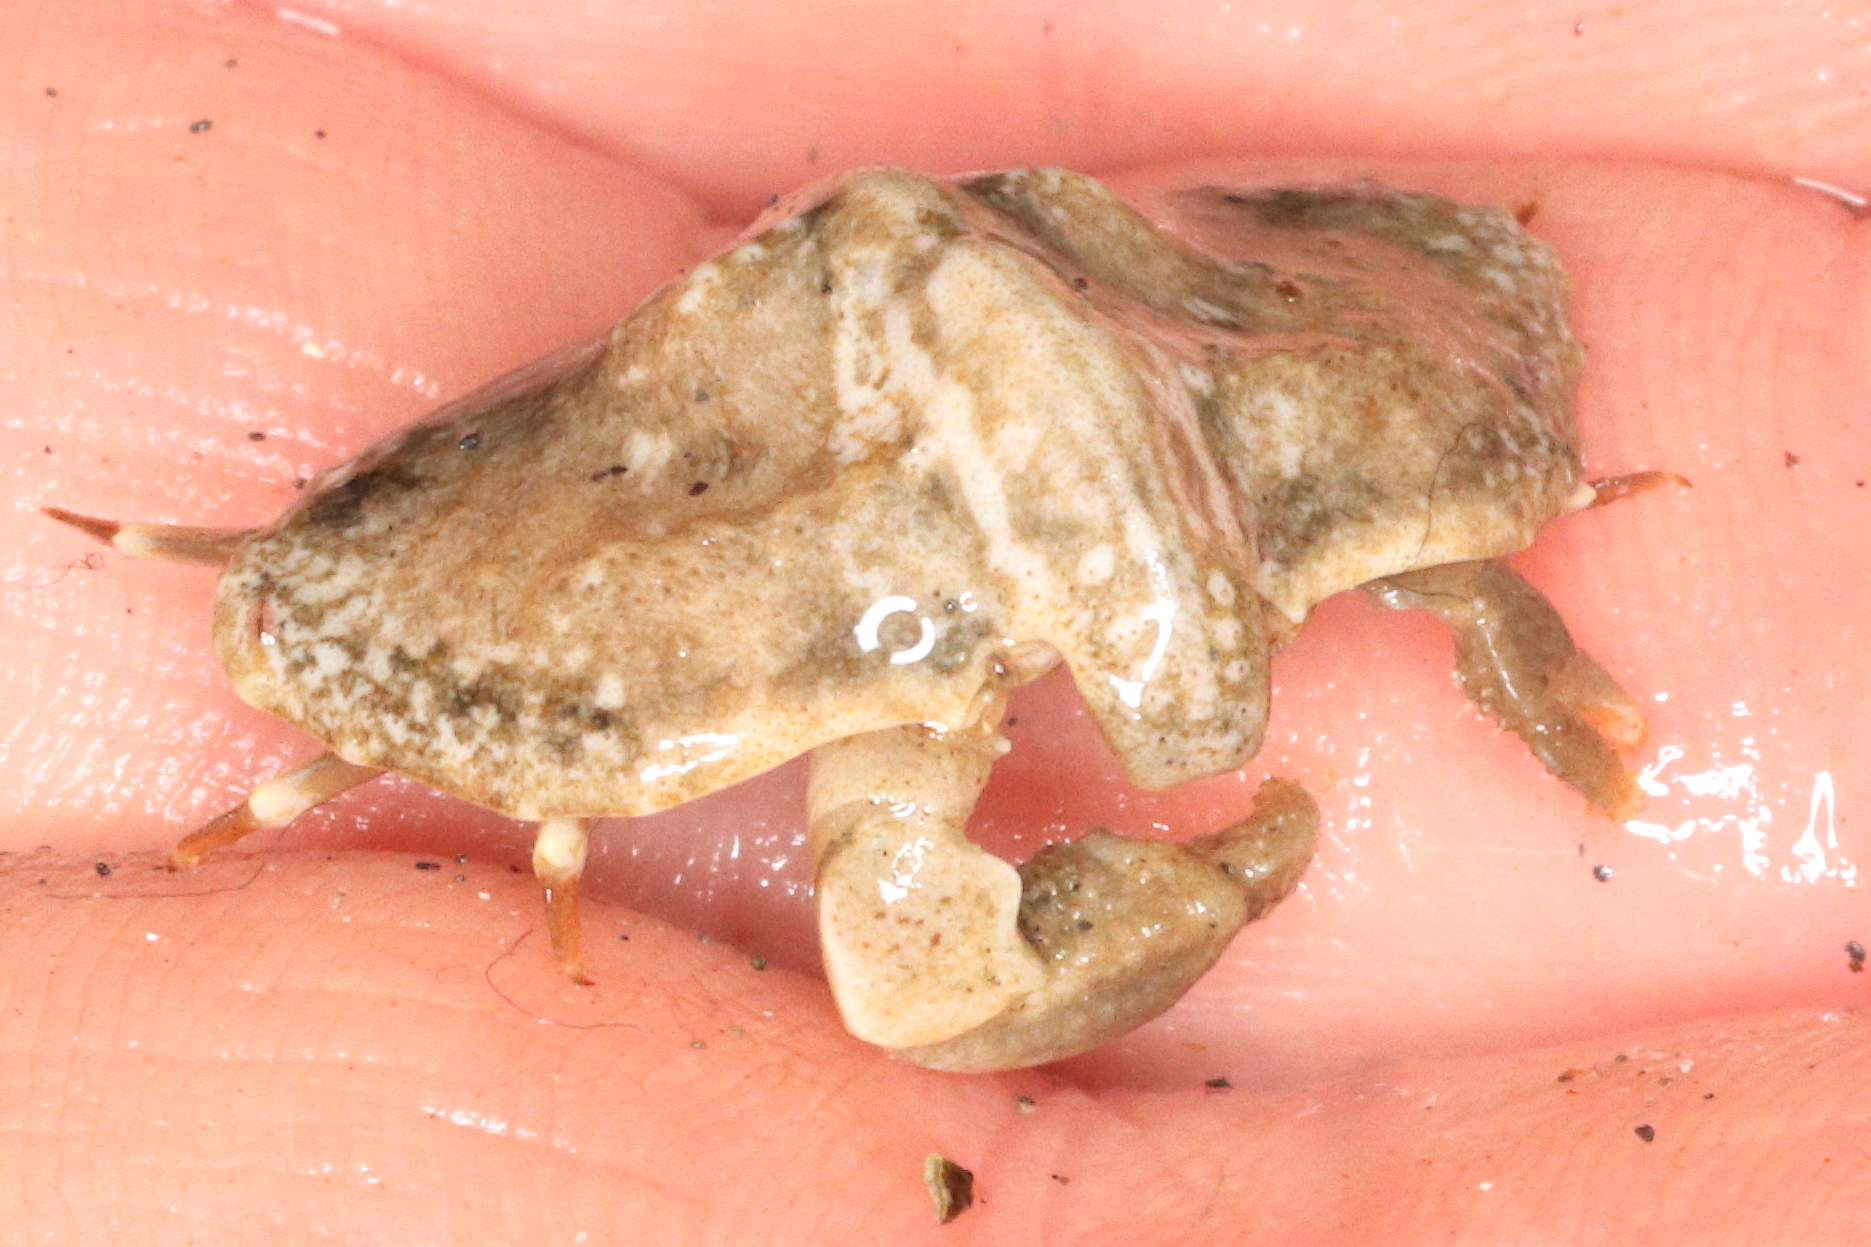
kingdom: Animalia
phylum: Arthropoda
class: Malacostraca
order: Decapoda
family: Lithodidae
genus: Cryptolithodes
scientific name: Cryptolithodes typicus
